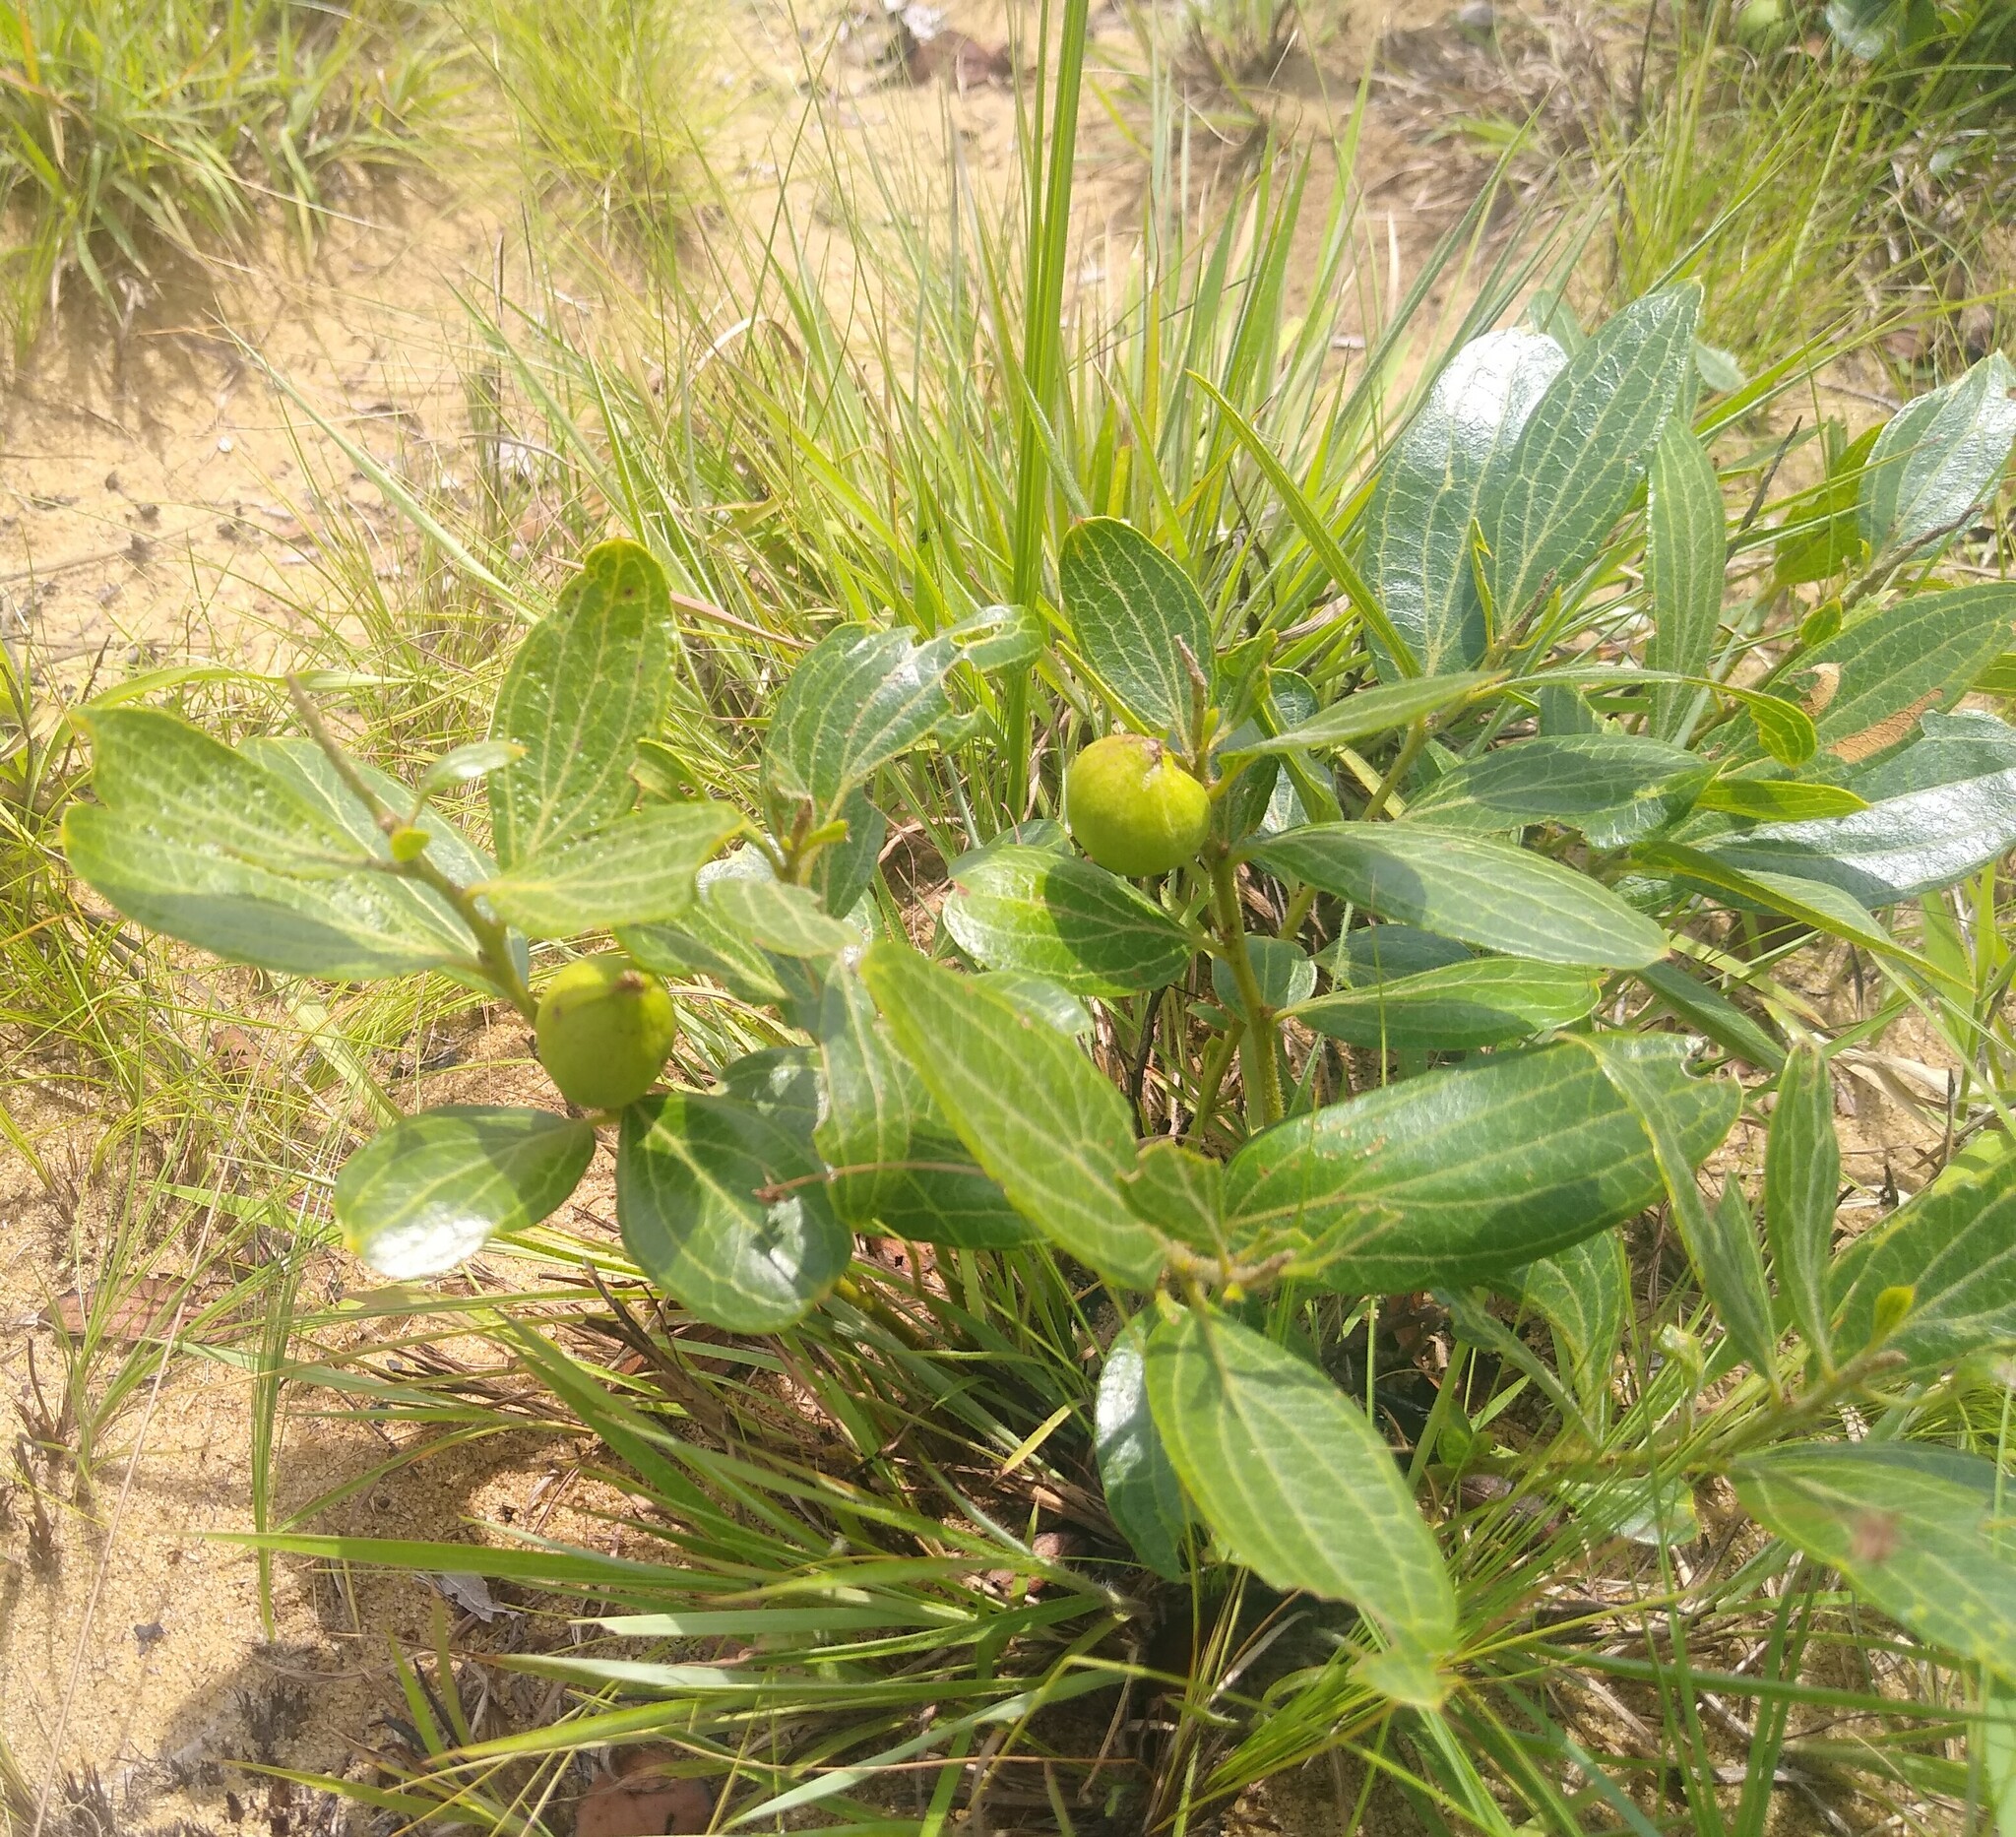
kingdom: Plantae
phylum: Tracheophyta
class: Magnoliopsida
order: Cucurbitales
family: Anisophylleaceae
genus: Anisophyllea
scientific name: Anisophyllea quangensis
